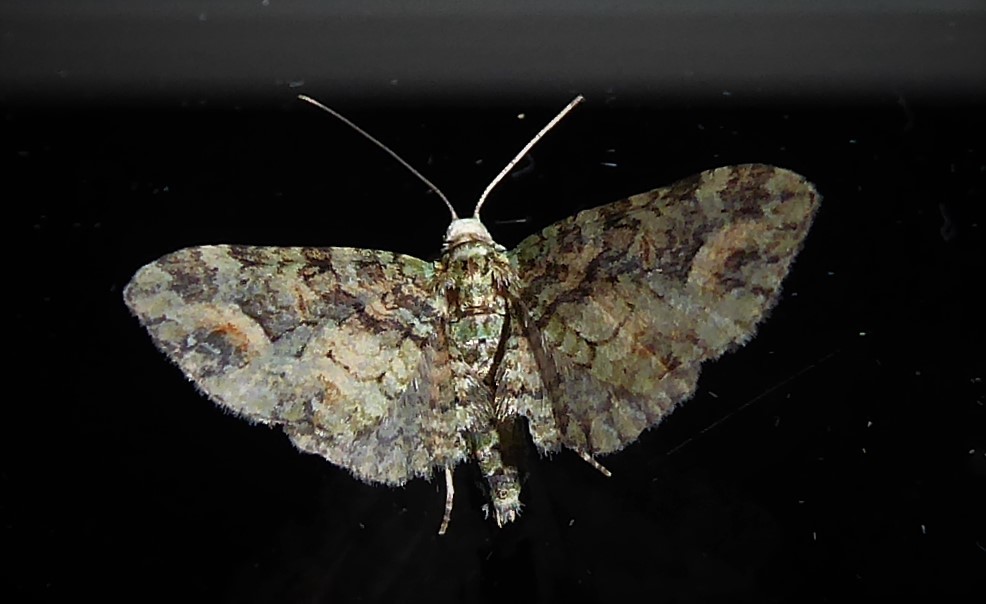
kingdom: Animalia
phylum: Arthropoda
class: Insecta
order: Lepidoptera
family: Geometridae
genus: Idaea
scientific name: Idaea mutanda
